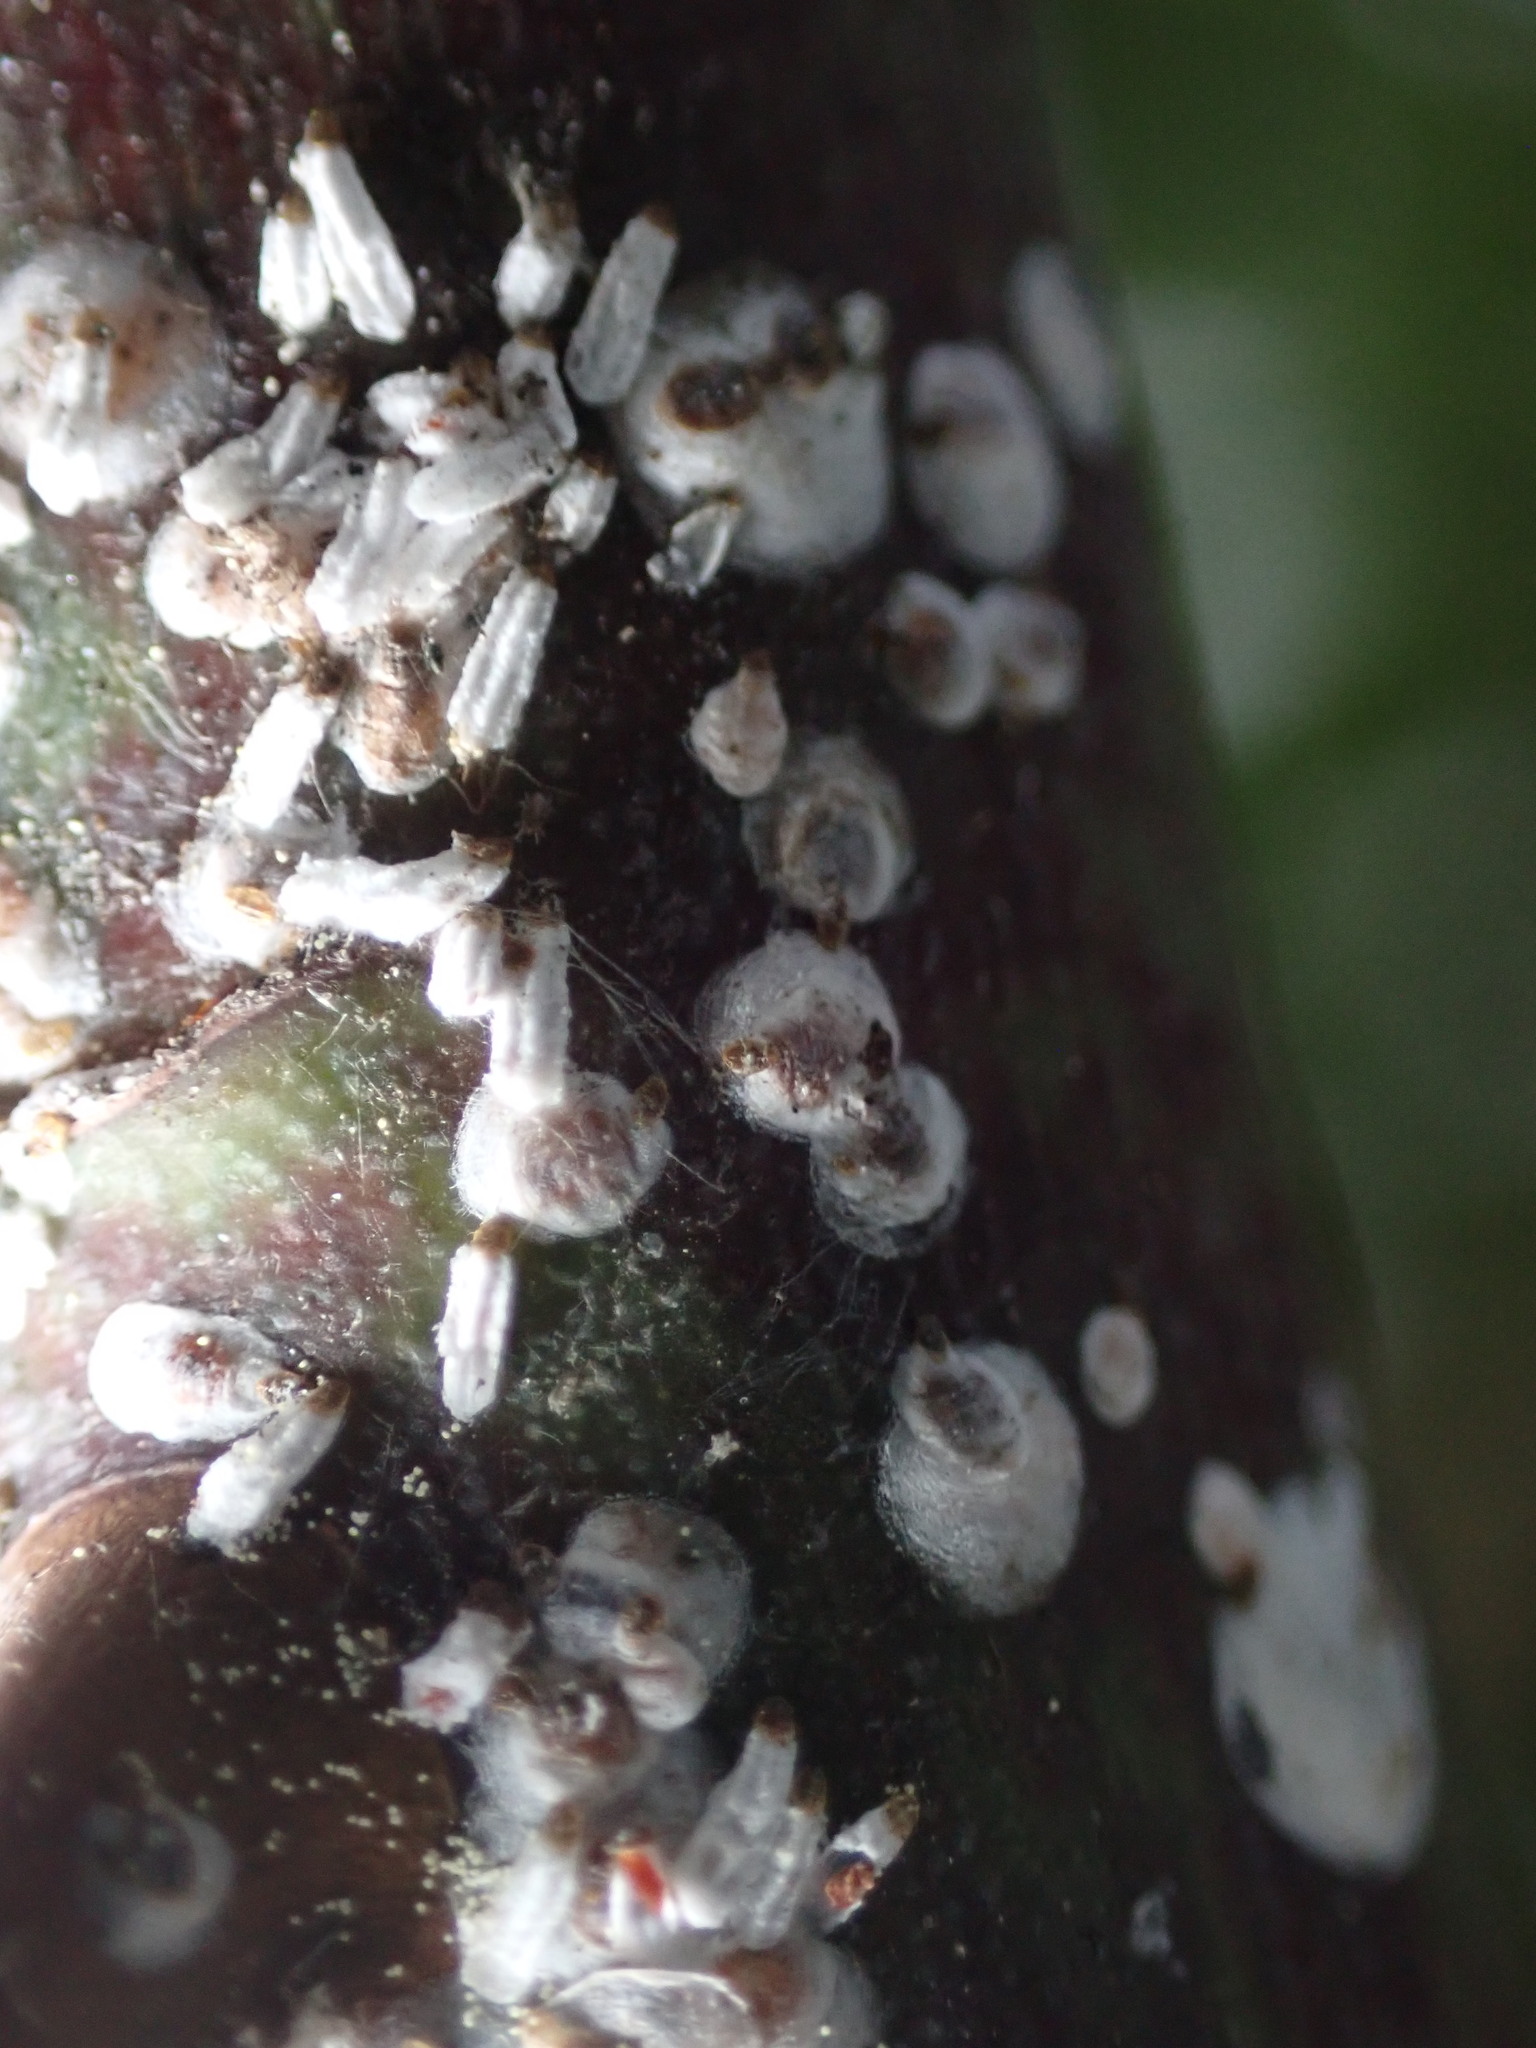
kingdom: Animalia
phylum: Arthropoda
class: Insecta
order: Hemiptera
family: Diaspididae
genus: Aulacaspis
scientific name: Aulacaspis
